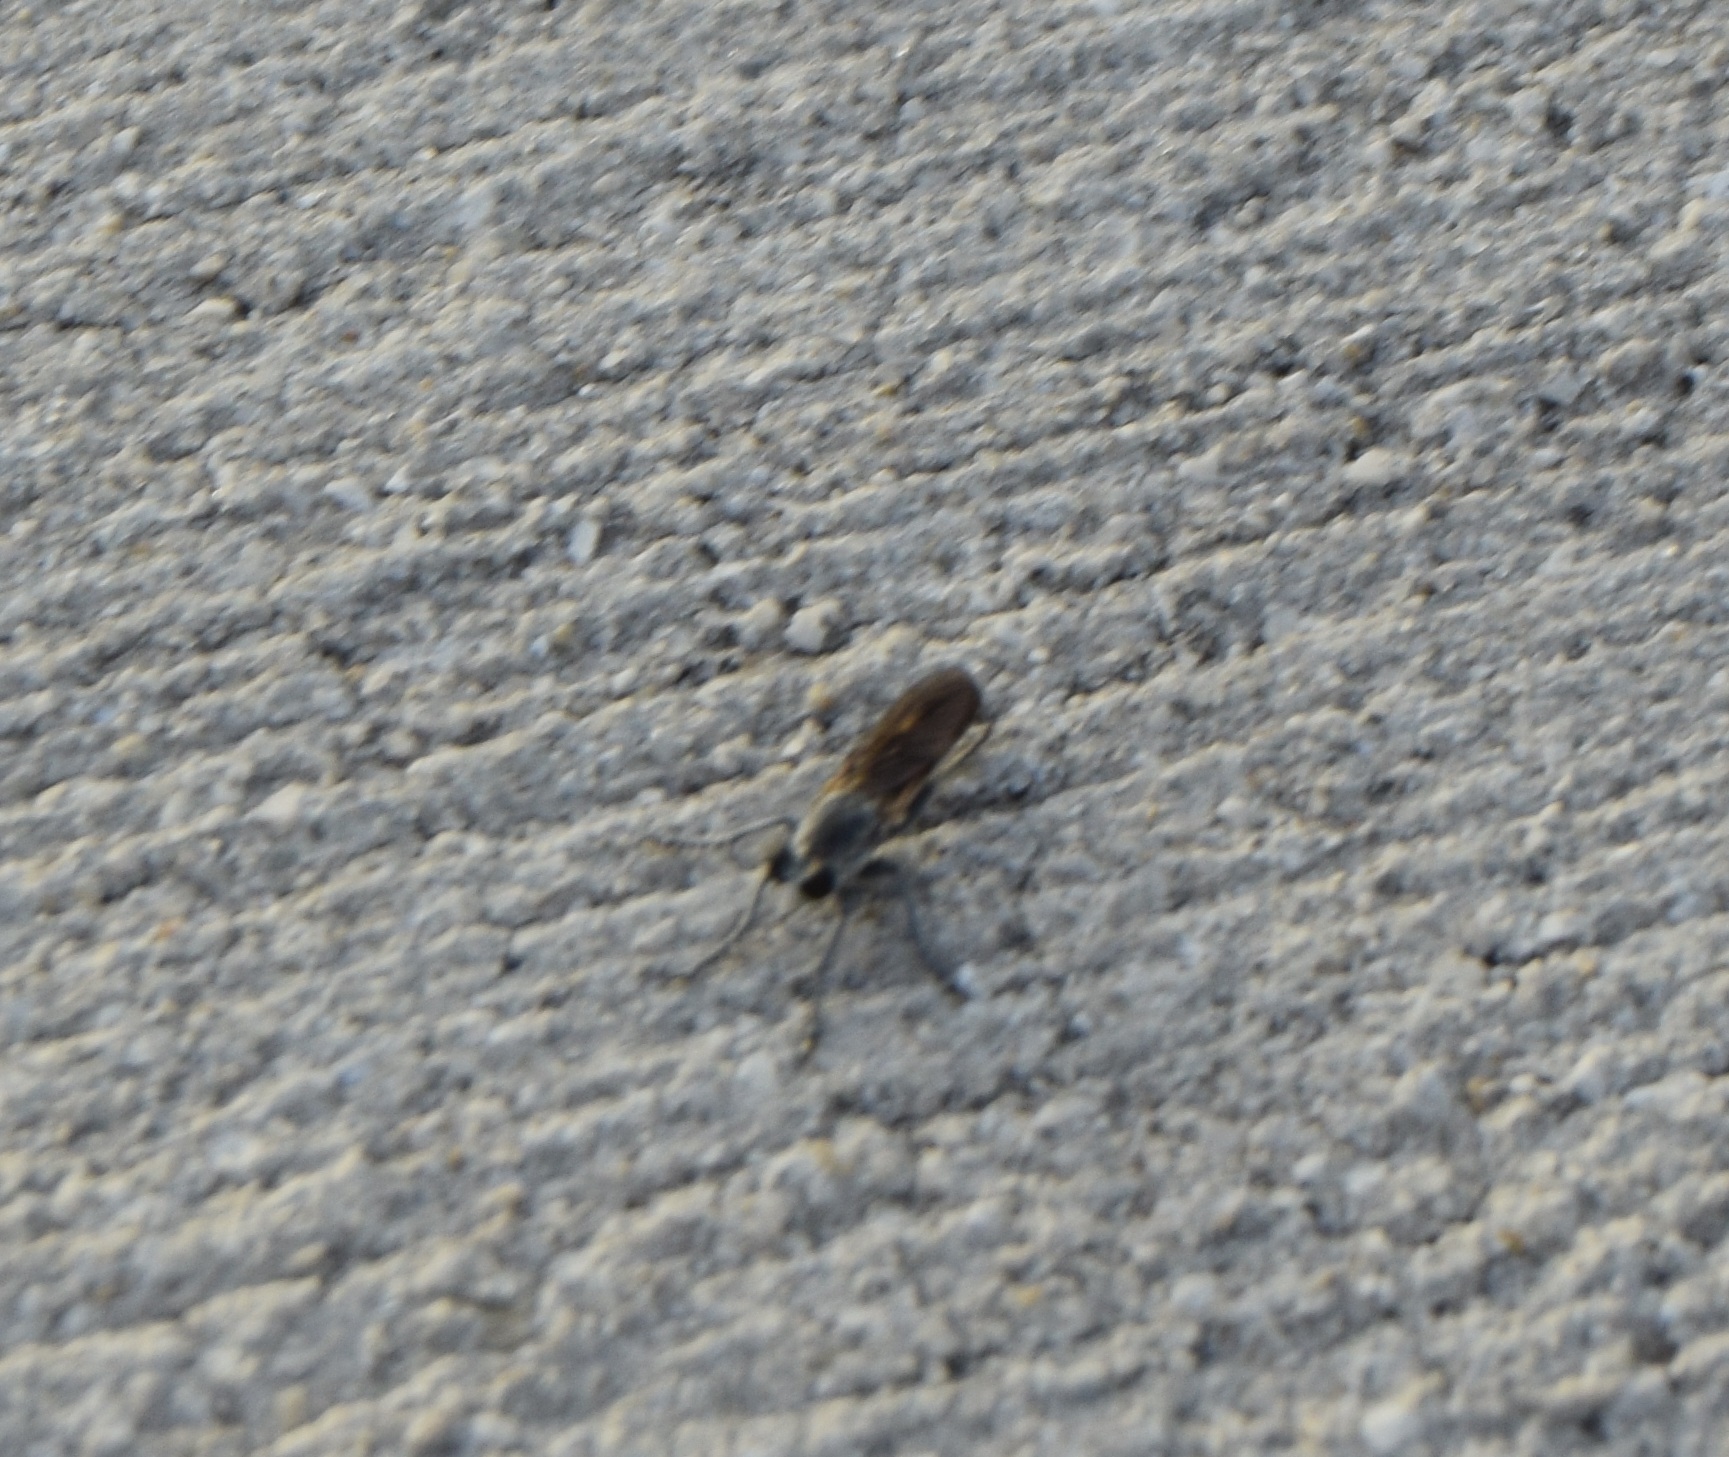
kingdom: Animalia
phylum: Arthropoda
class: Insecta
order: Diptera
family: Asilidae
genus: Stichopogon
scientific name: Stichopogon trifasciatus
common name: Three-banded robber fly
